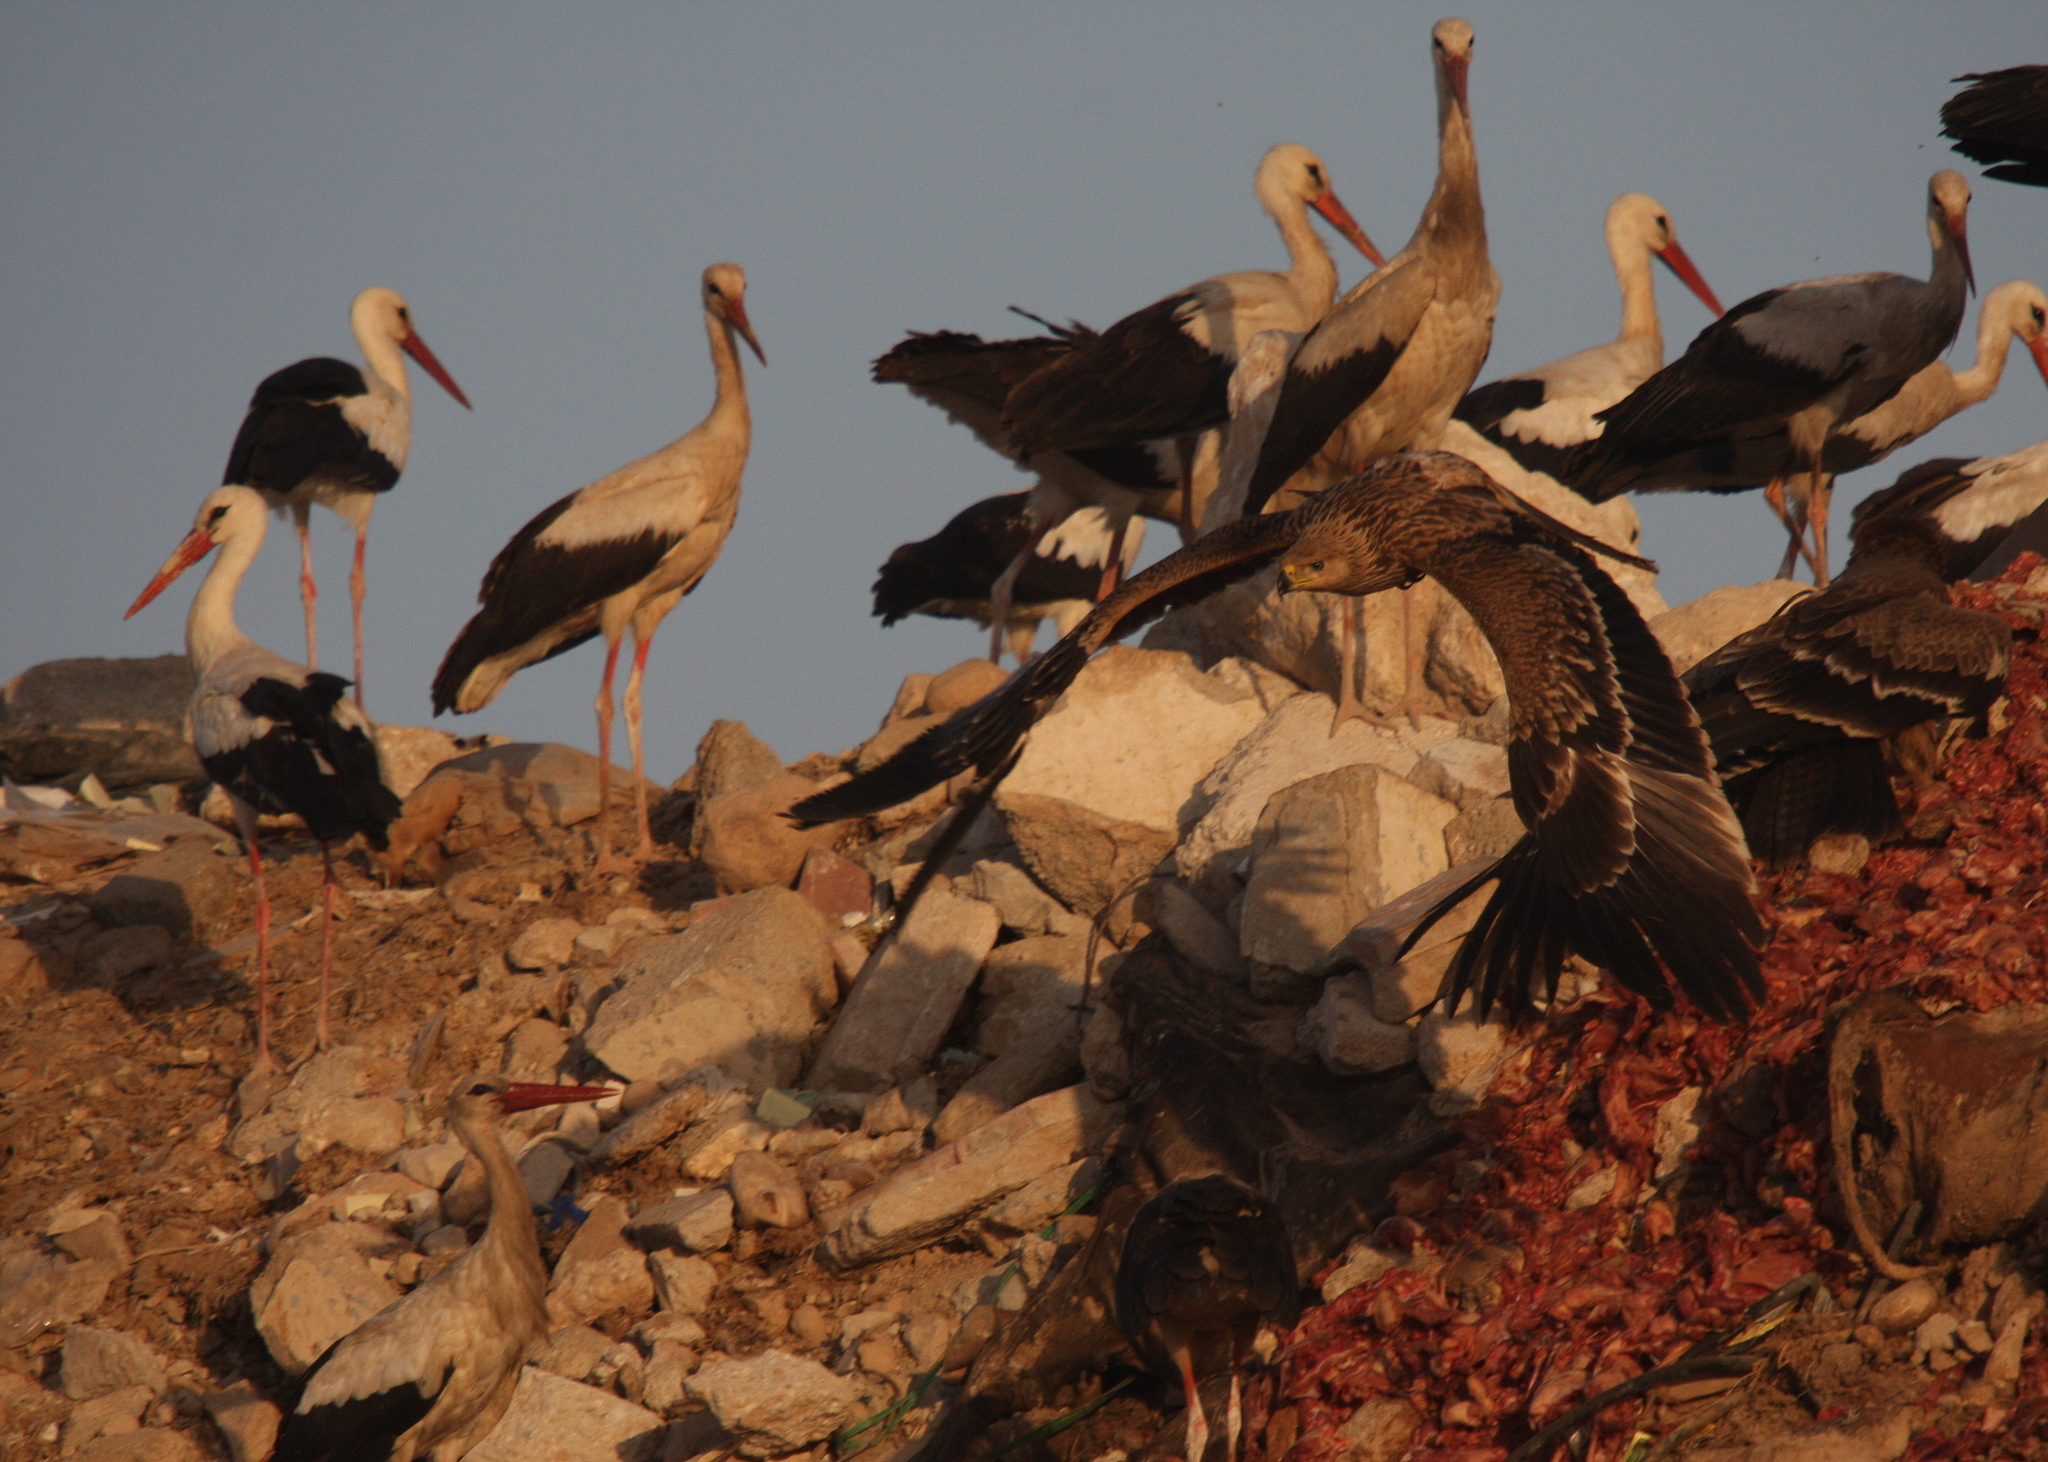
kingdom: Animalia
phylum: Chordata
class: Aves
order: Ciconiiformes
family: Ciconiidae
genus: Ciconia
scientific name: Ciconia ciconia
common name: White stork
